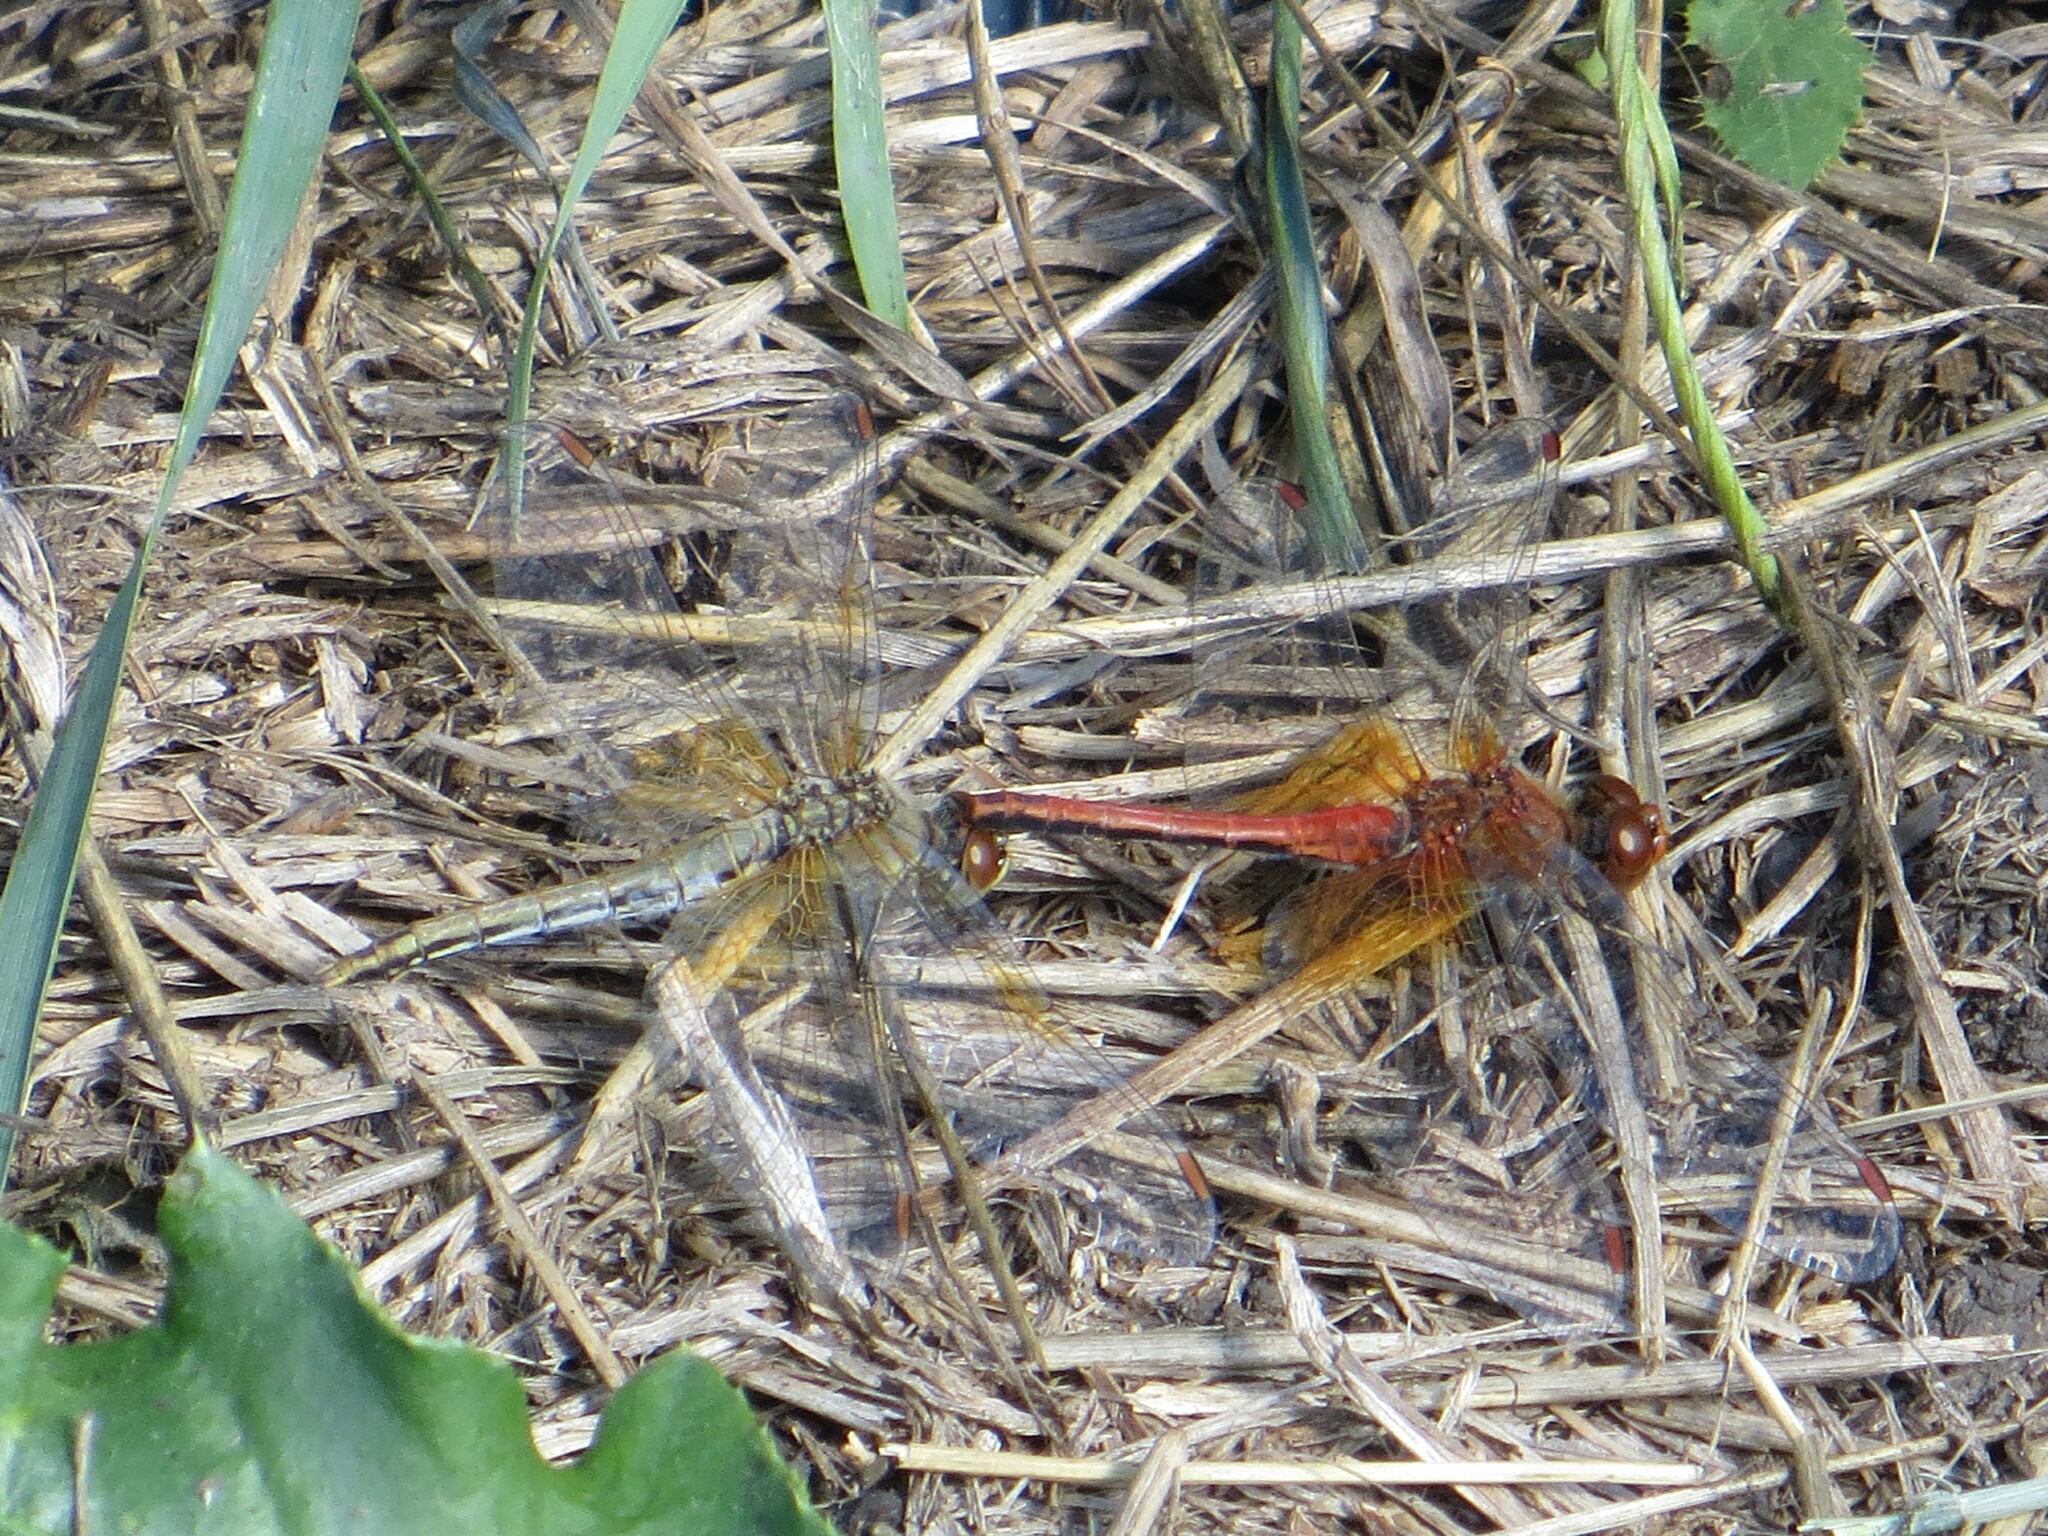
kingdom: Animalia
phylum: Arthropoda
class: Insecta
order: Odonata
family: Libellulidae
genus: Sympetrum
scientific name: Sympetrum flaveolum
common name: Yellow-winged darter
